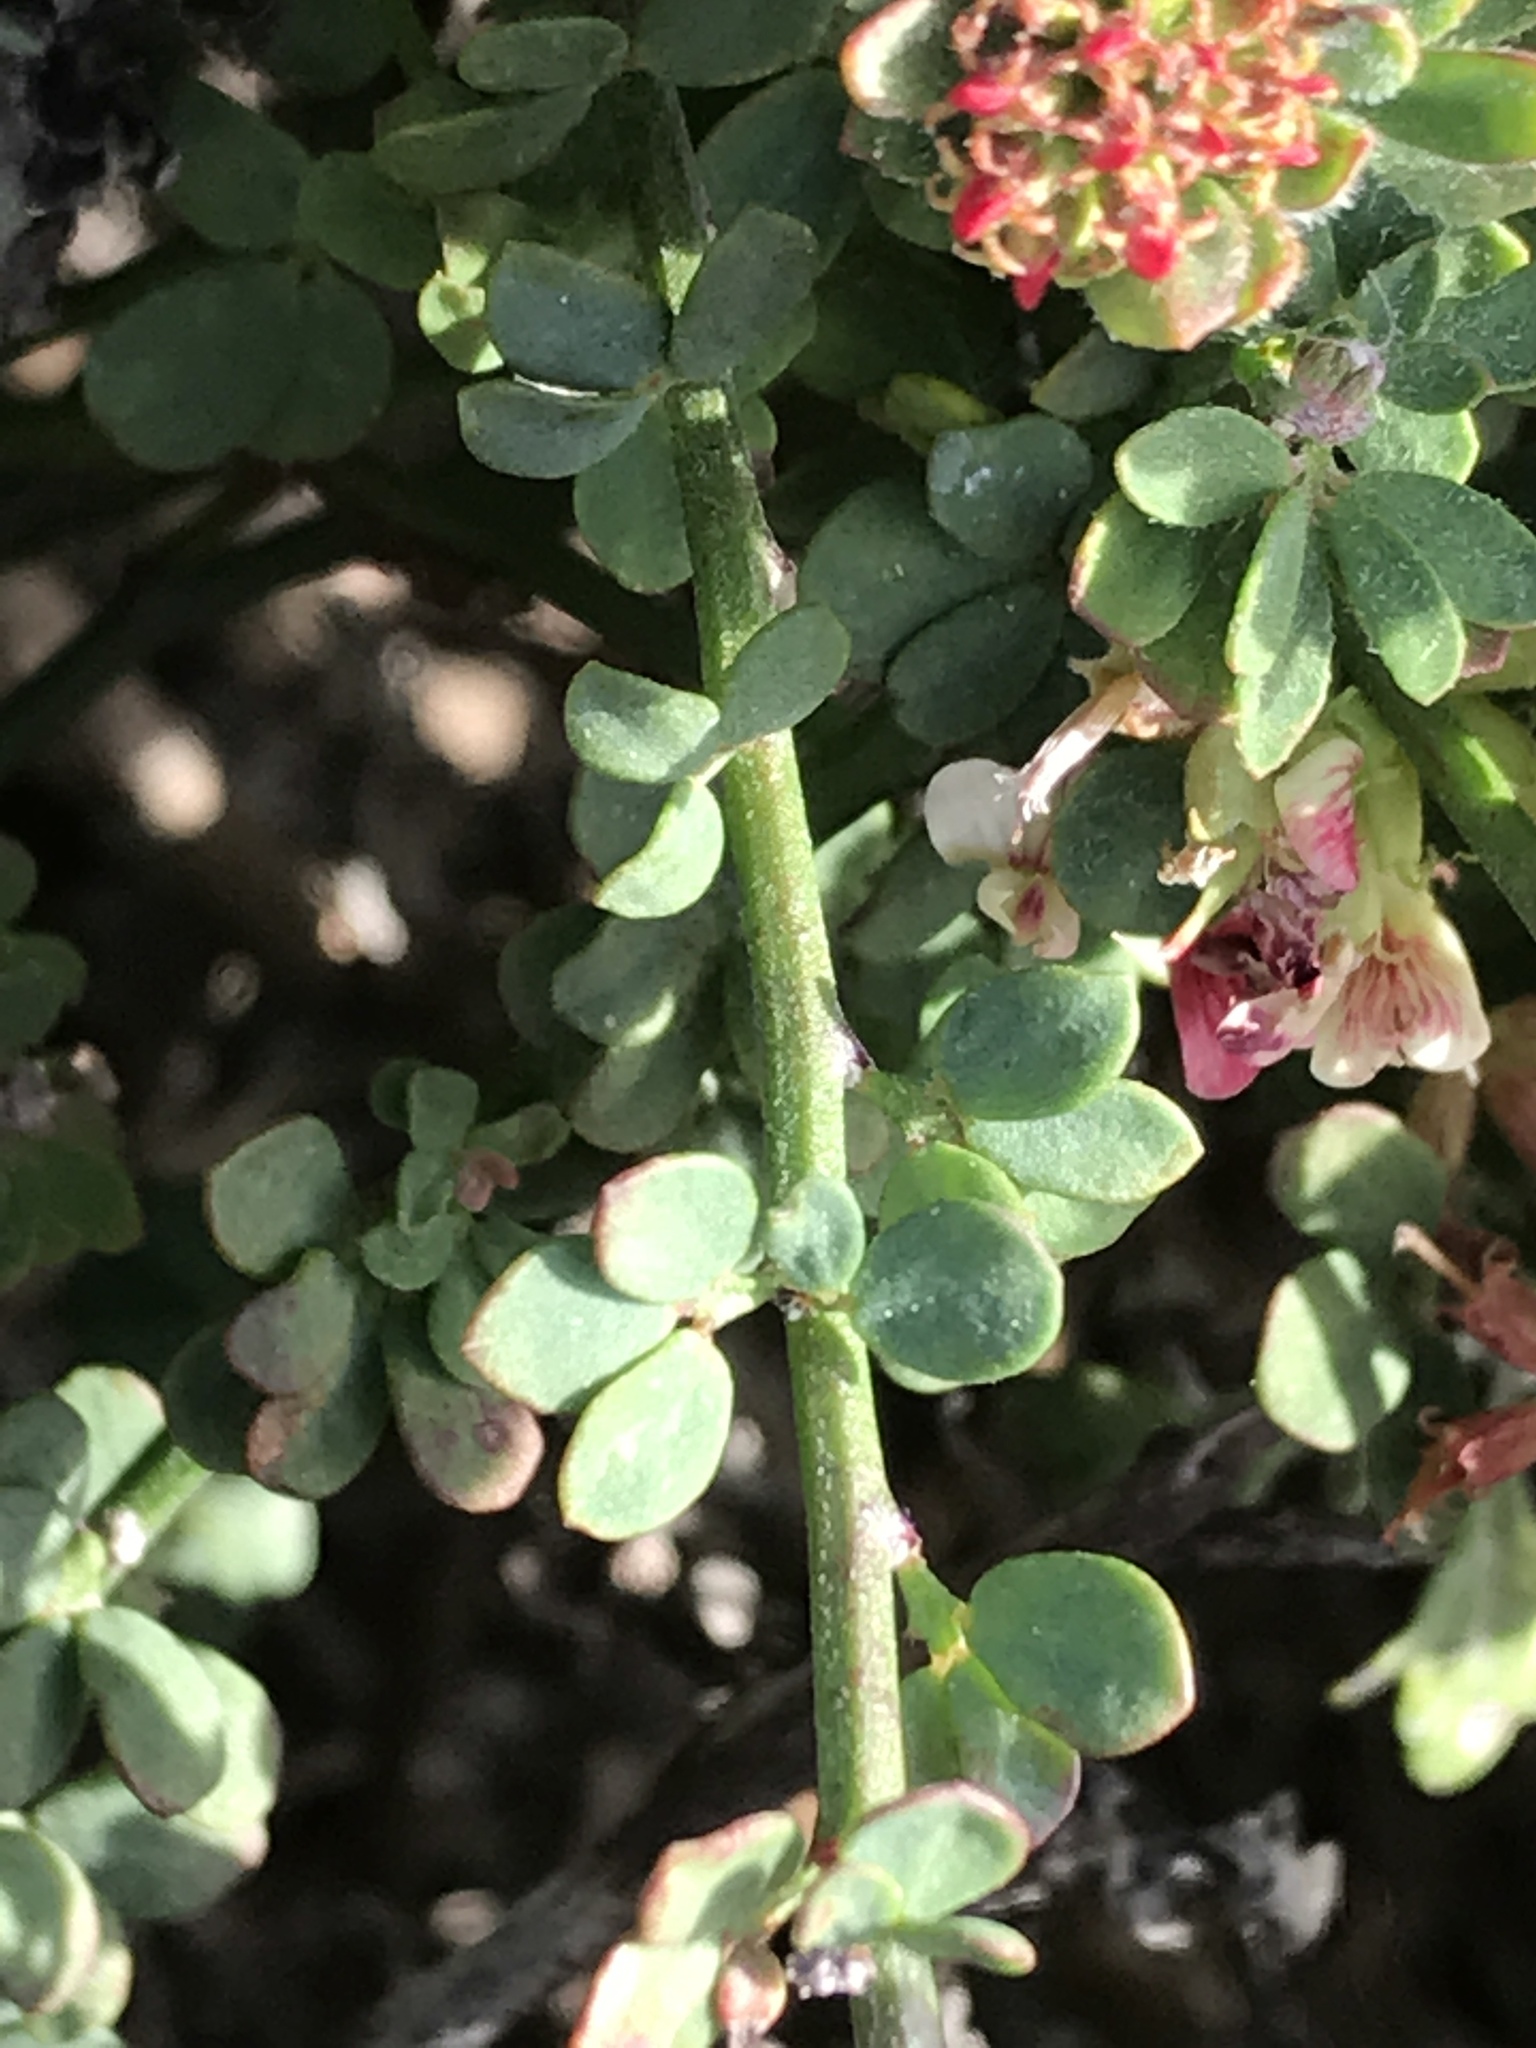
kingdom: Plantae
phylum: Tracheophyta
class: Magnoliopsida
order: Fabales
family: Fabaceae
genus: Acmispon
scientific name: Acmispon cytisoides
